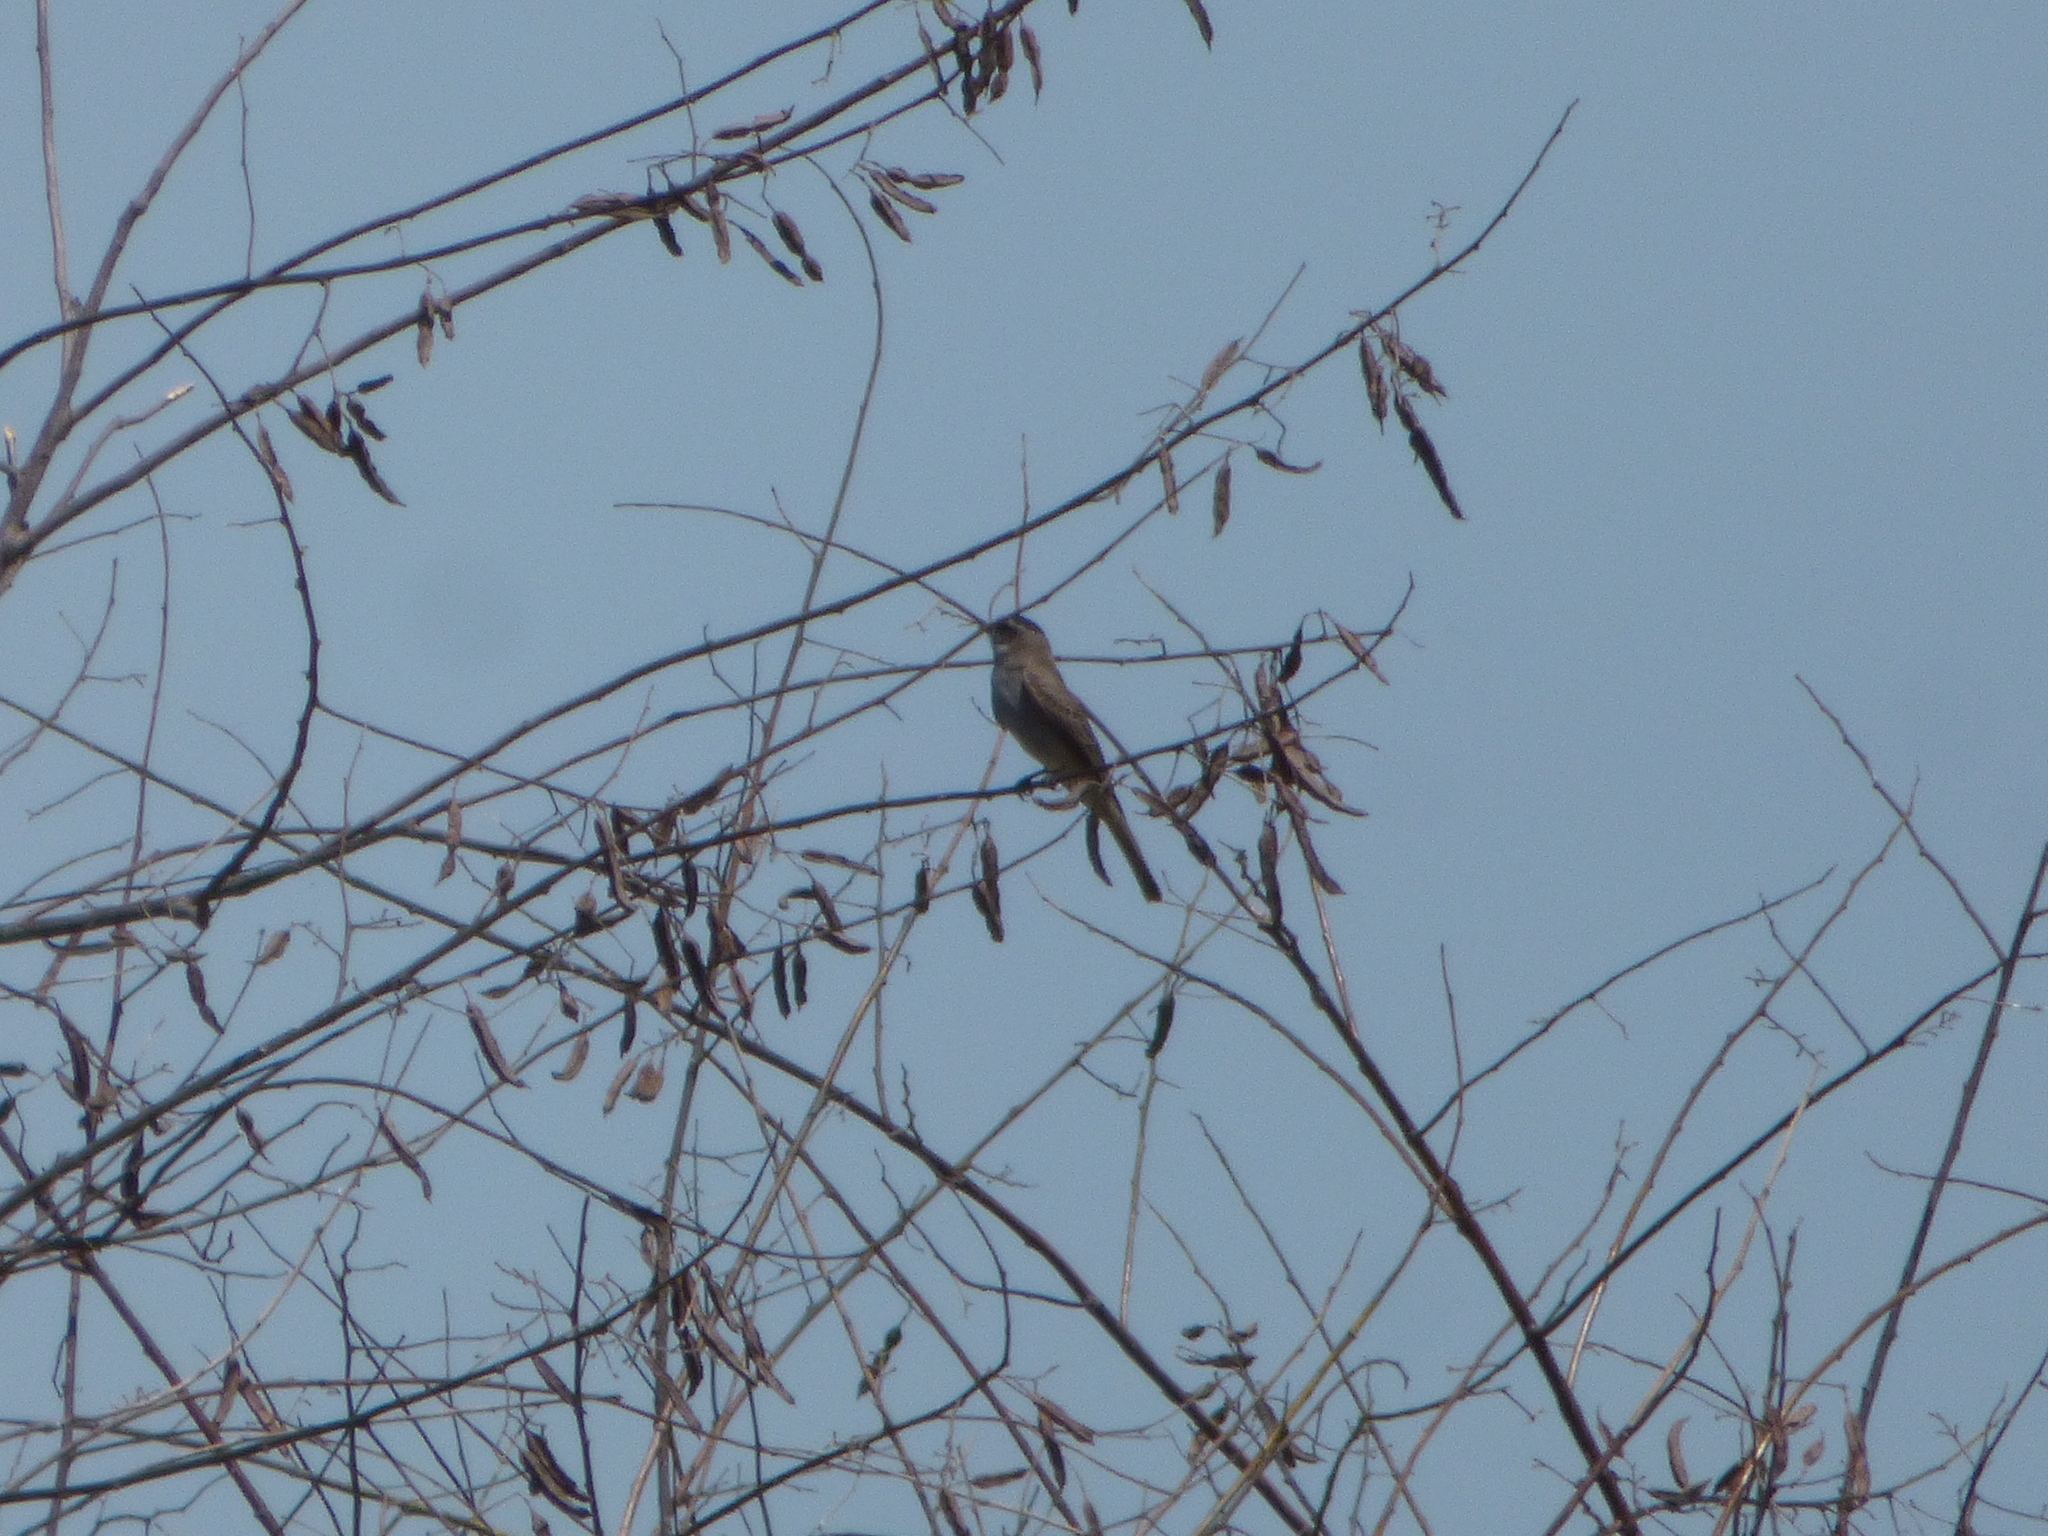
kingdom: Animalia
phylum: Chordata
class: Aves
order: Passeriformes
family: Tyrannidae
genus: Empidonomus
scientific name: Empidonomus aurantioatrocristatus
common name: Crowned slaty flycatcher
